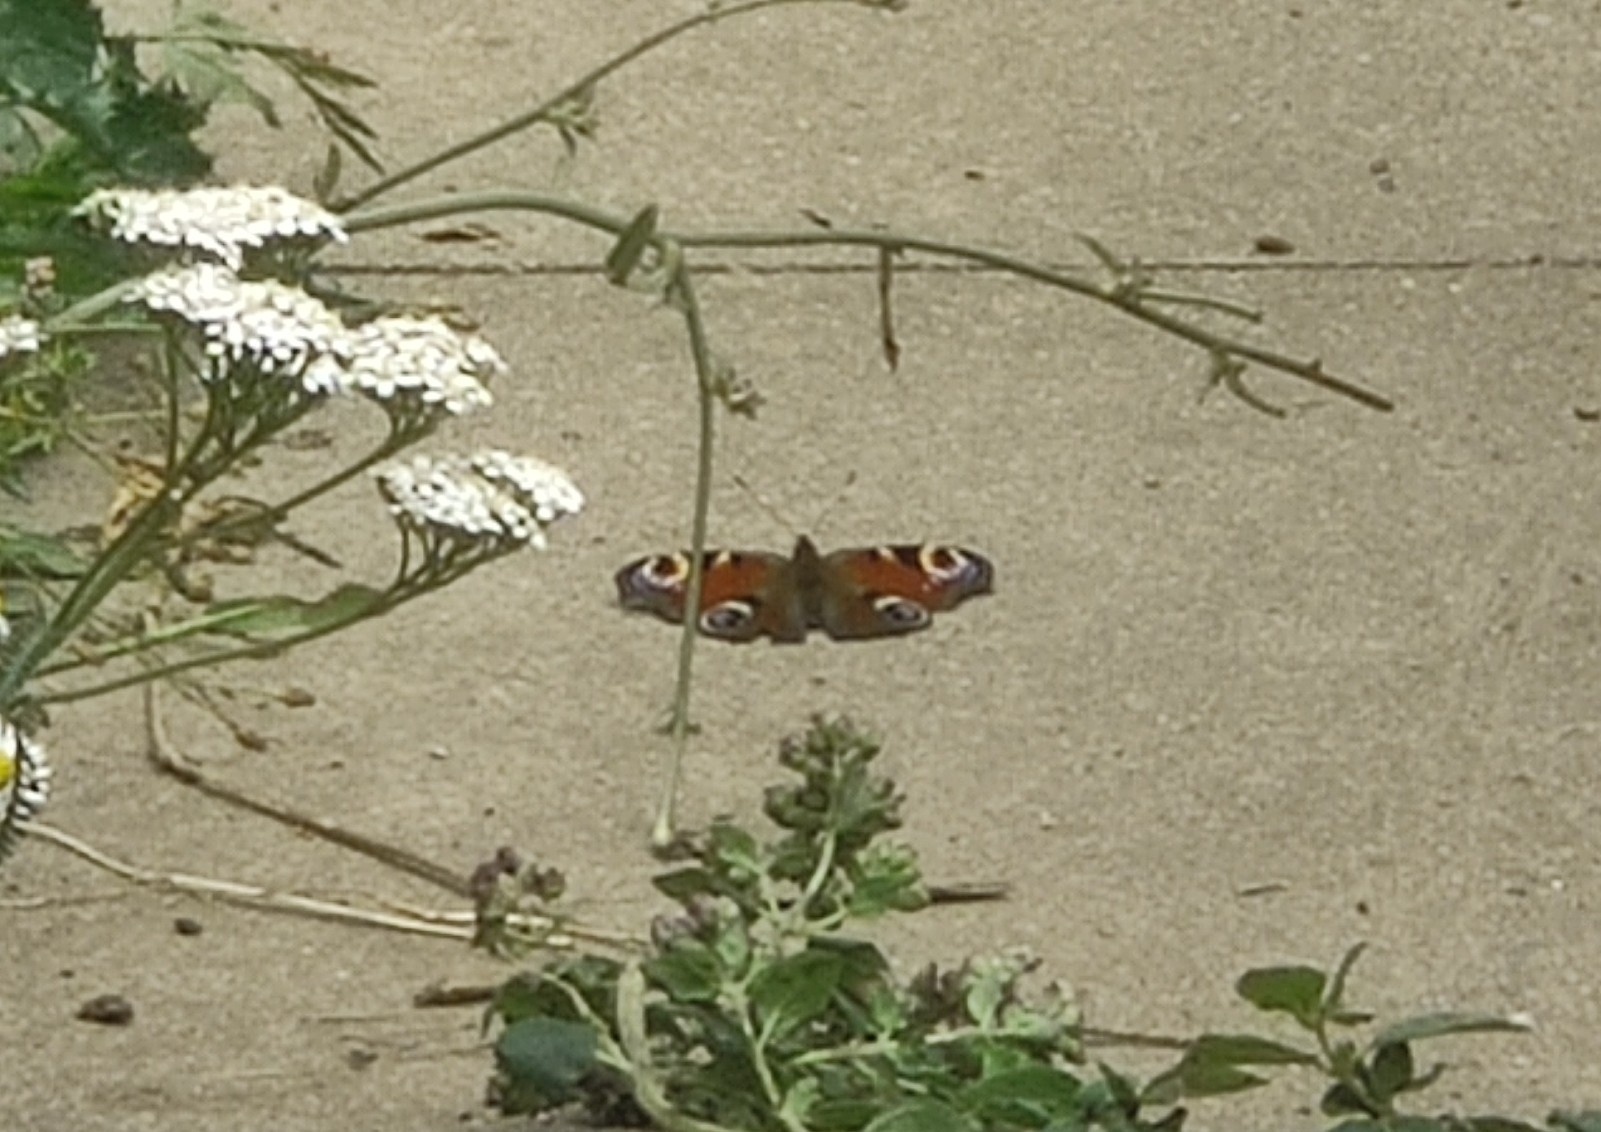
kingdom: Animalia
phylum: Arthropoda
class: Insecta
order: Lepidoptera
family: Nymphalidae
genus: Aglais
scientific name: Aglais io
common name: Peacock
